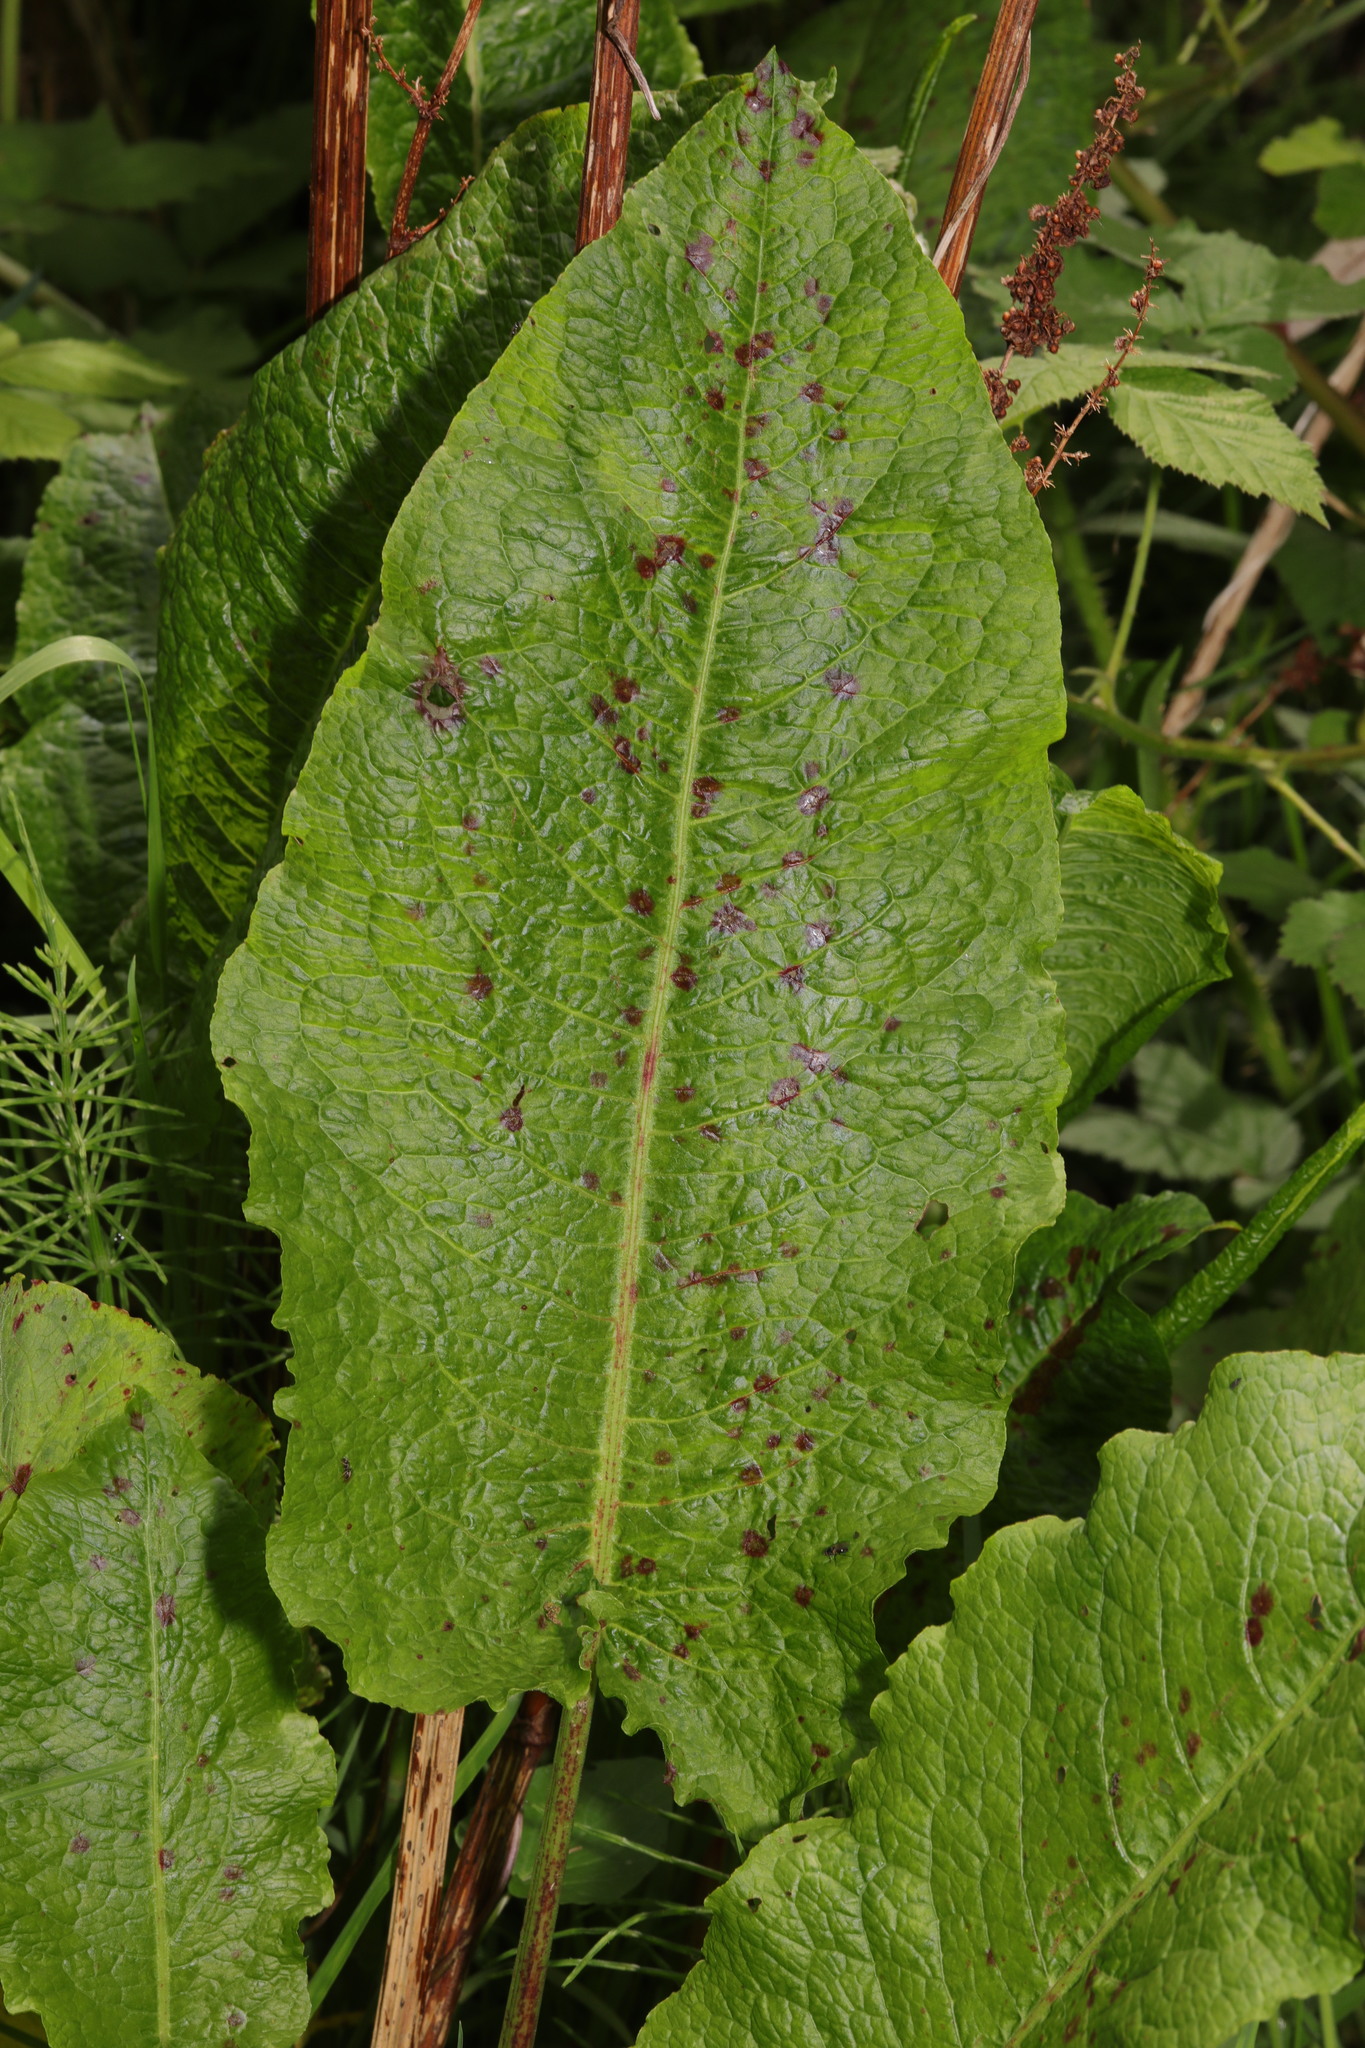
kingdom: Plantae
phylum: Tracheophyta
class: Magnoliopsida
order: Caryophyllales
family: Polygonaceae
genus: Rumex
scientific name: Rumex obtusifolius
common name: Bitter dock
